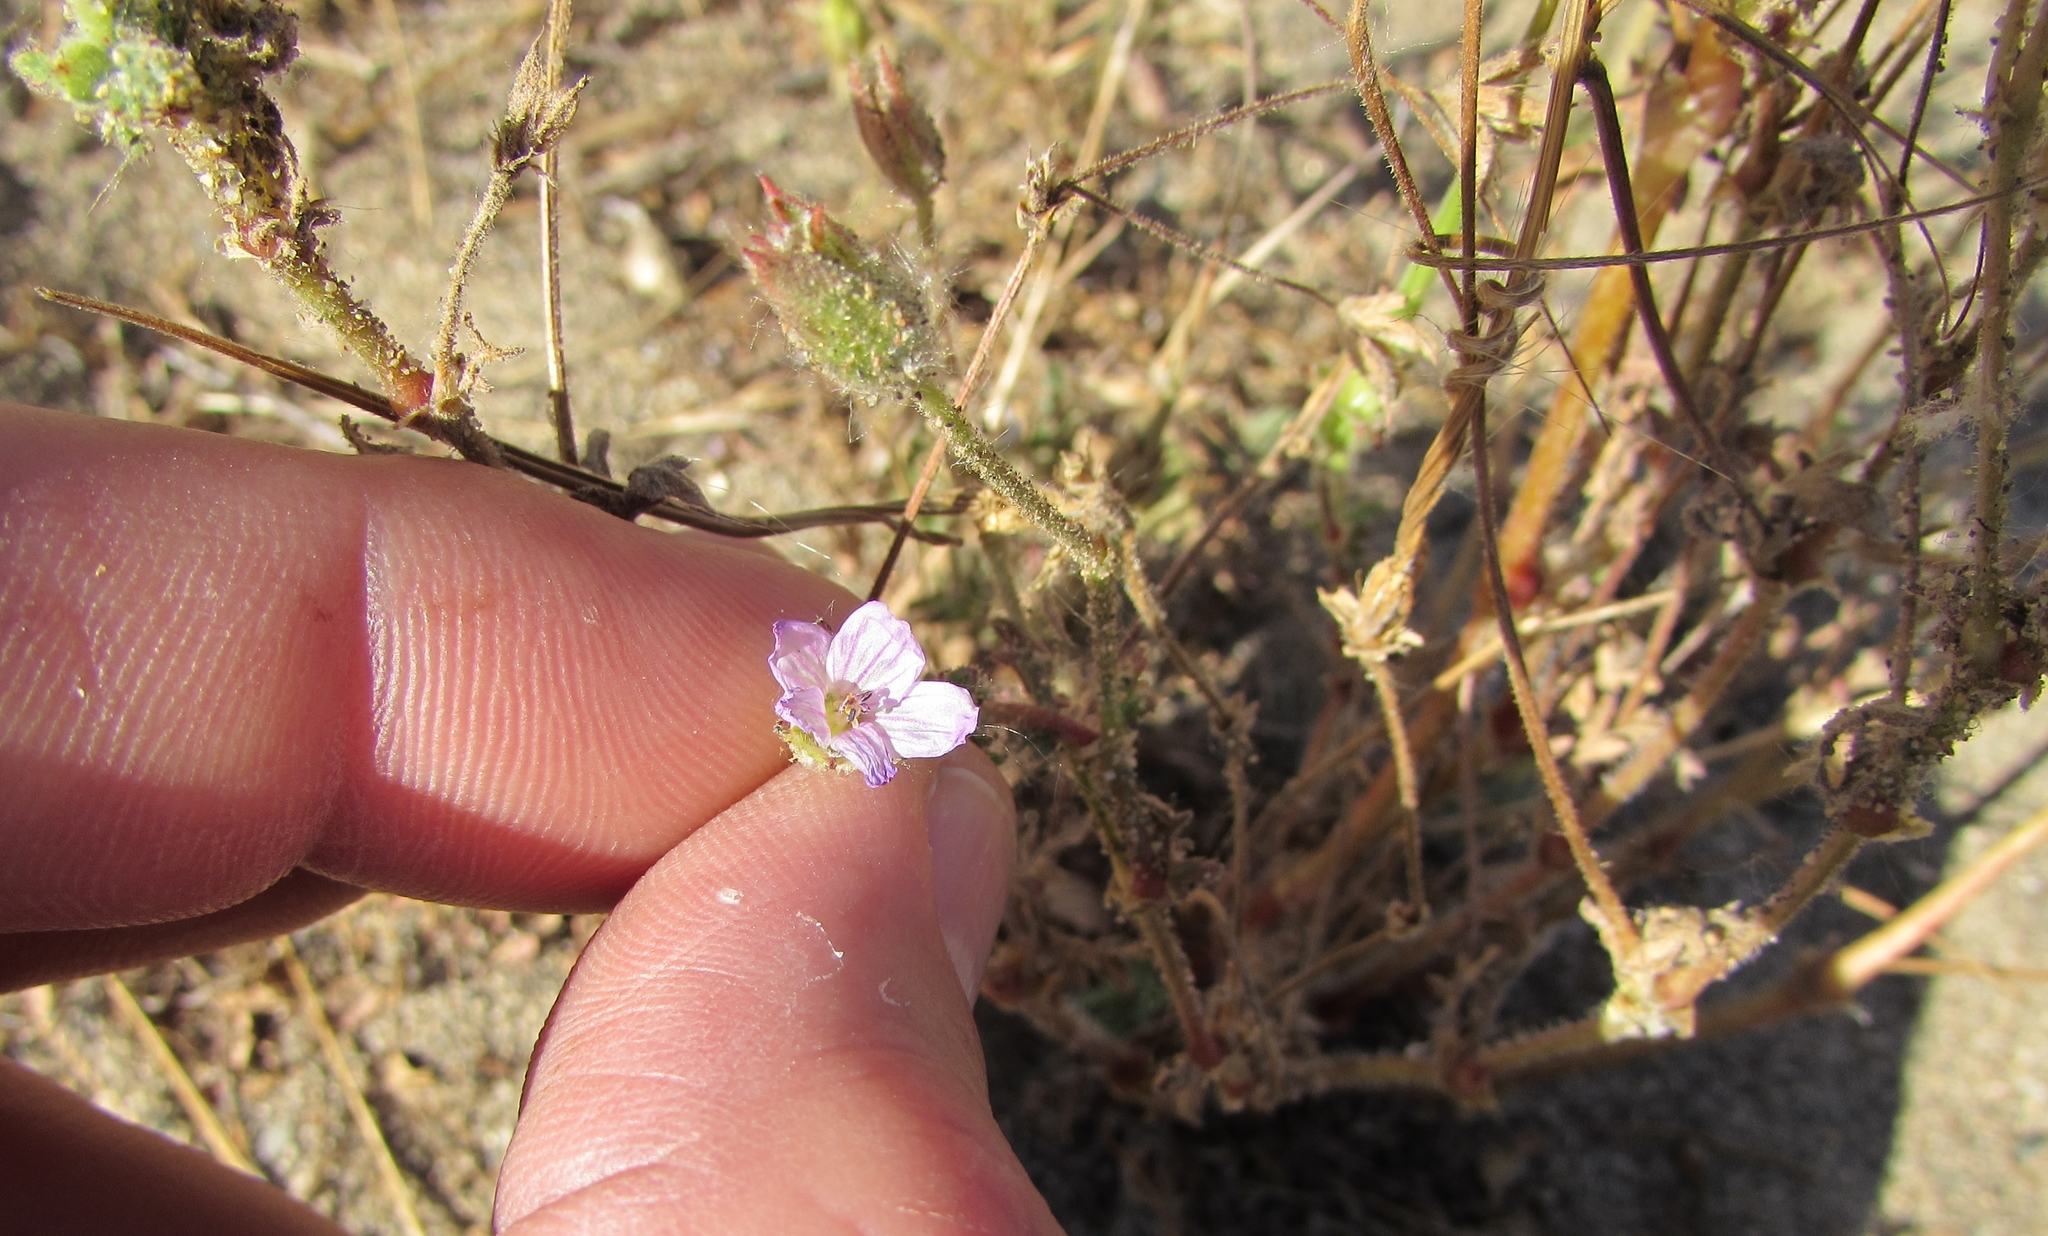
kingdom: Plantae
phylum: Tracheophyta
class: Magnoliopsida
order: Geraniales
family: Geraniaceae
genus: Erodium
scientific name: Erodium botrys
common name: Mediterranean stork's-bill
